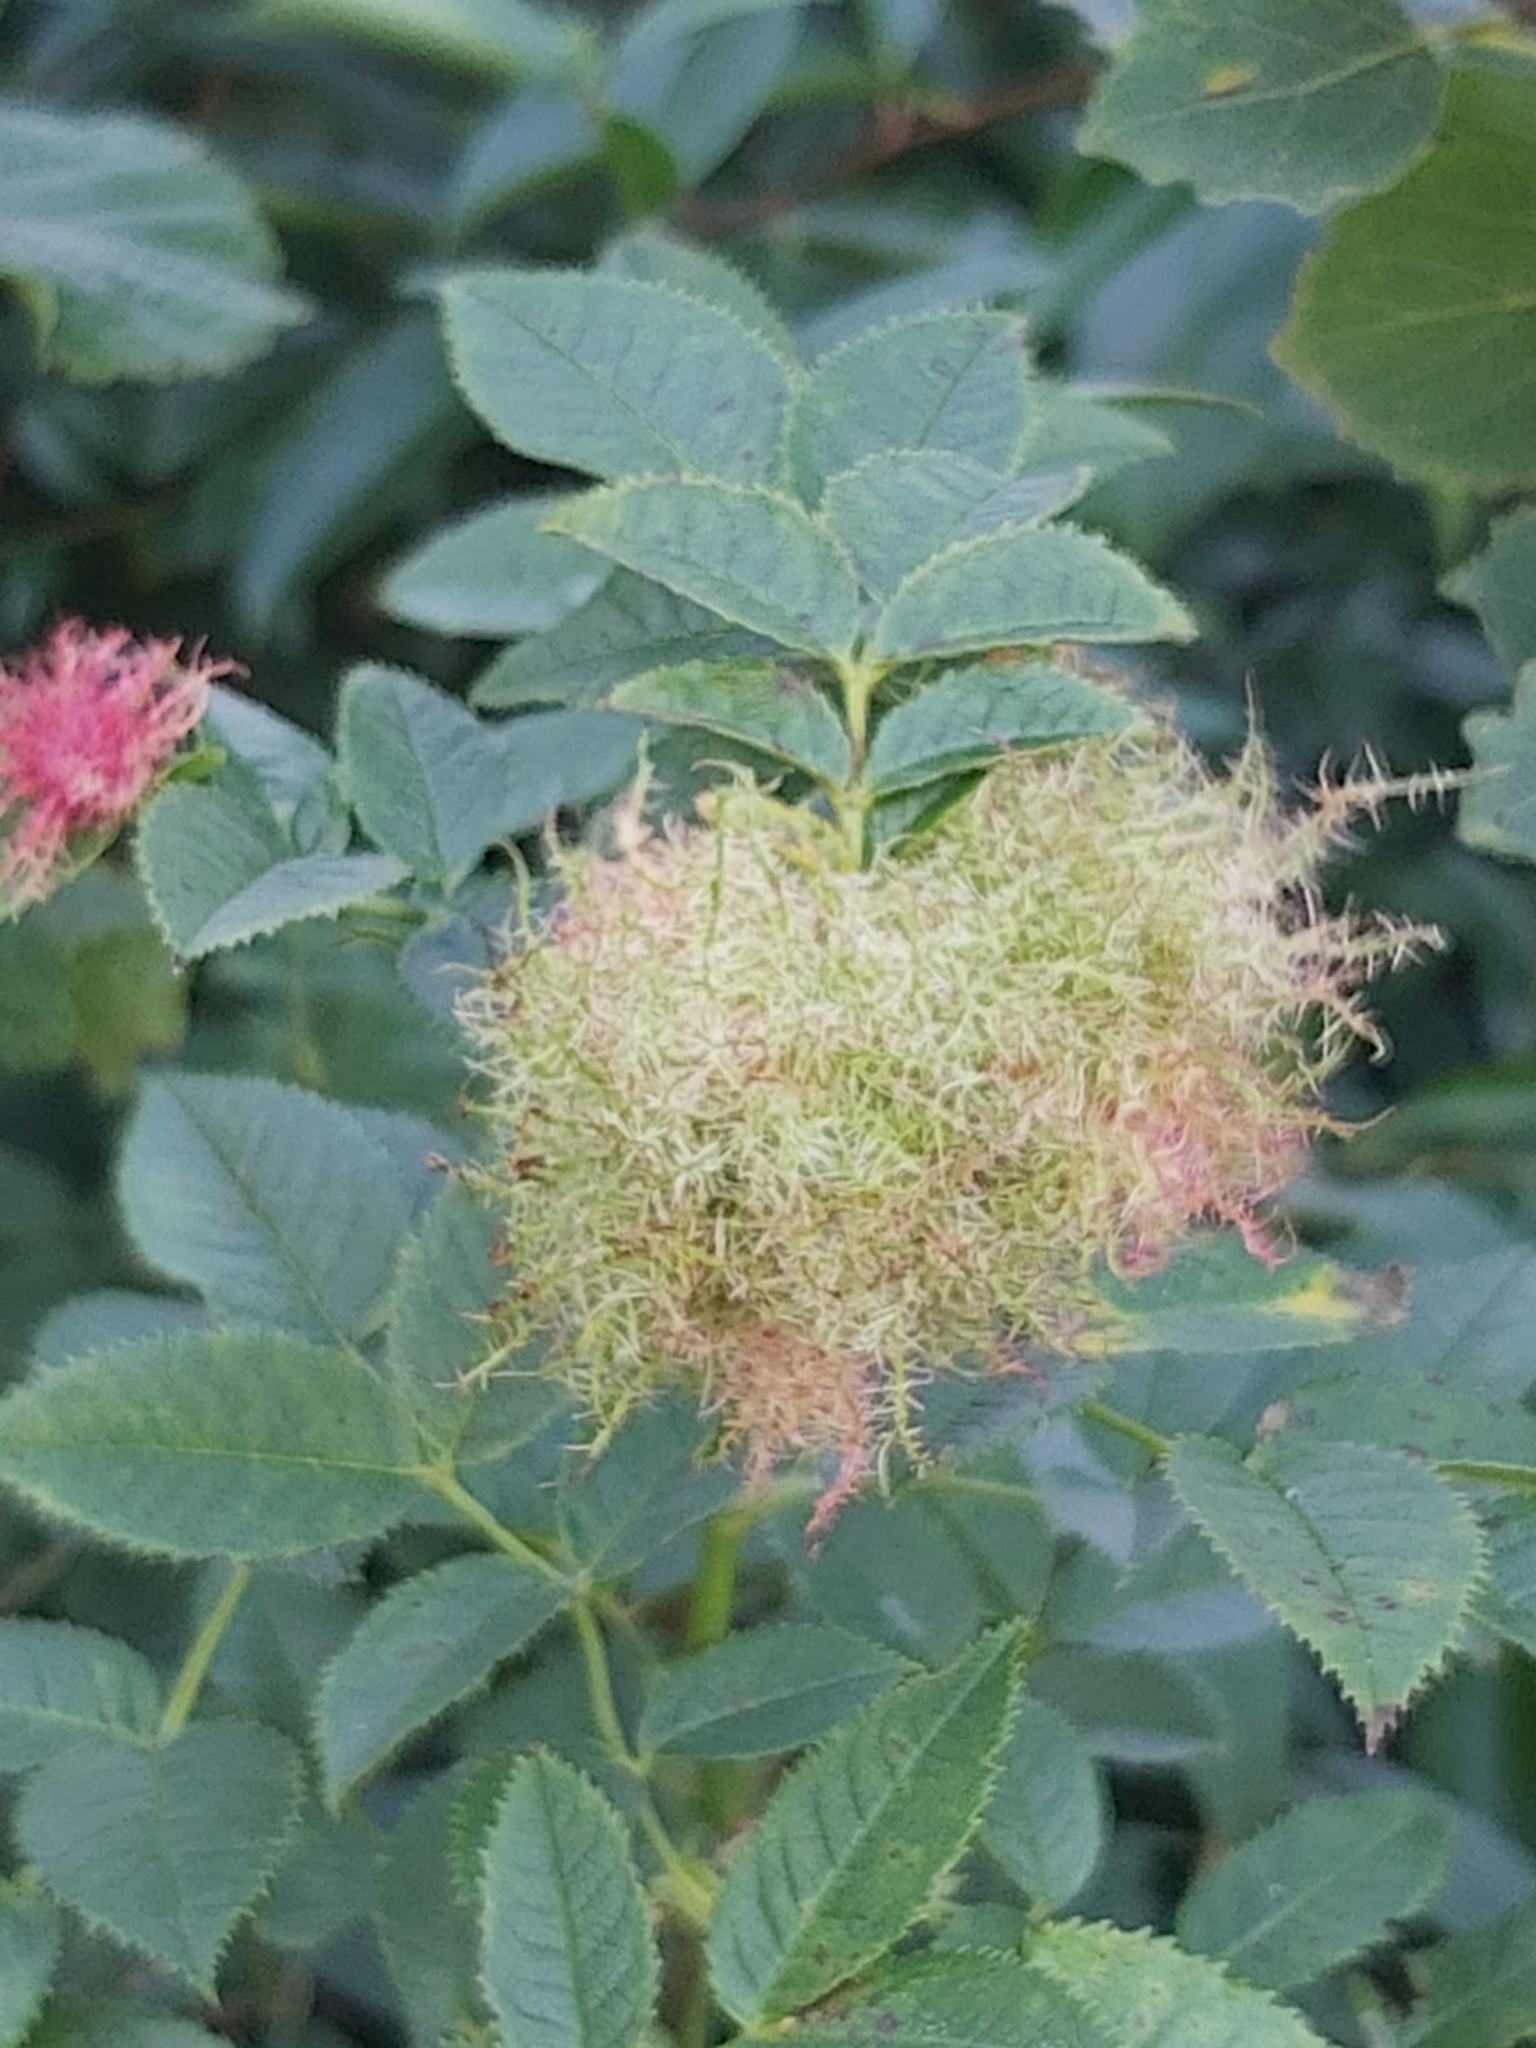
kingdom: Animalia
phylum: Arthropoda
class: Insecta
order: Hymenoptera
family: Cynipidae
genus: Diplolepis
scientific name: Diplolepis rosae
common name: Bedeguar gall
